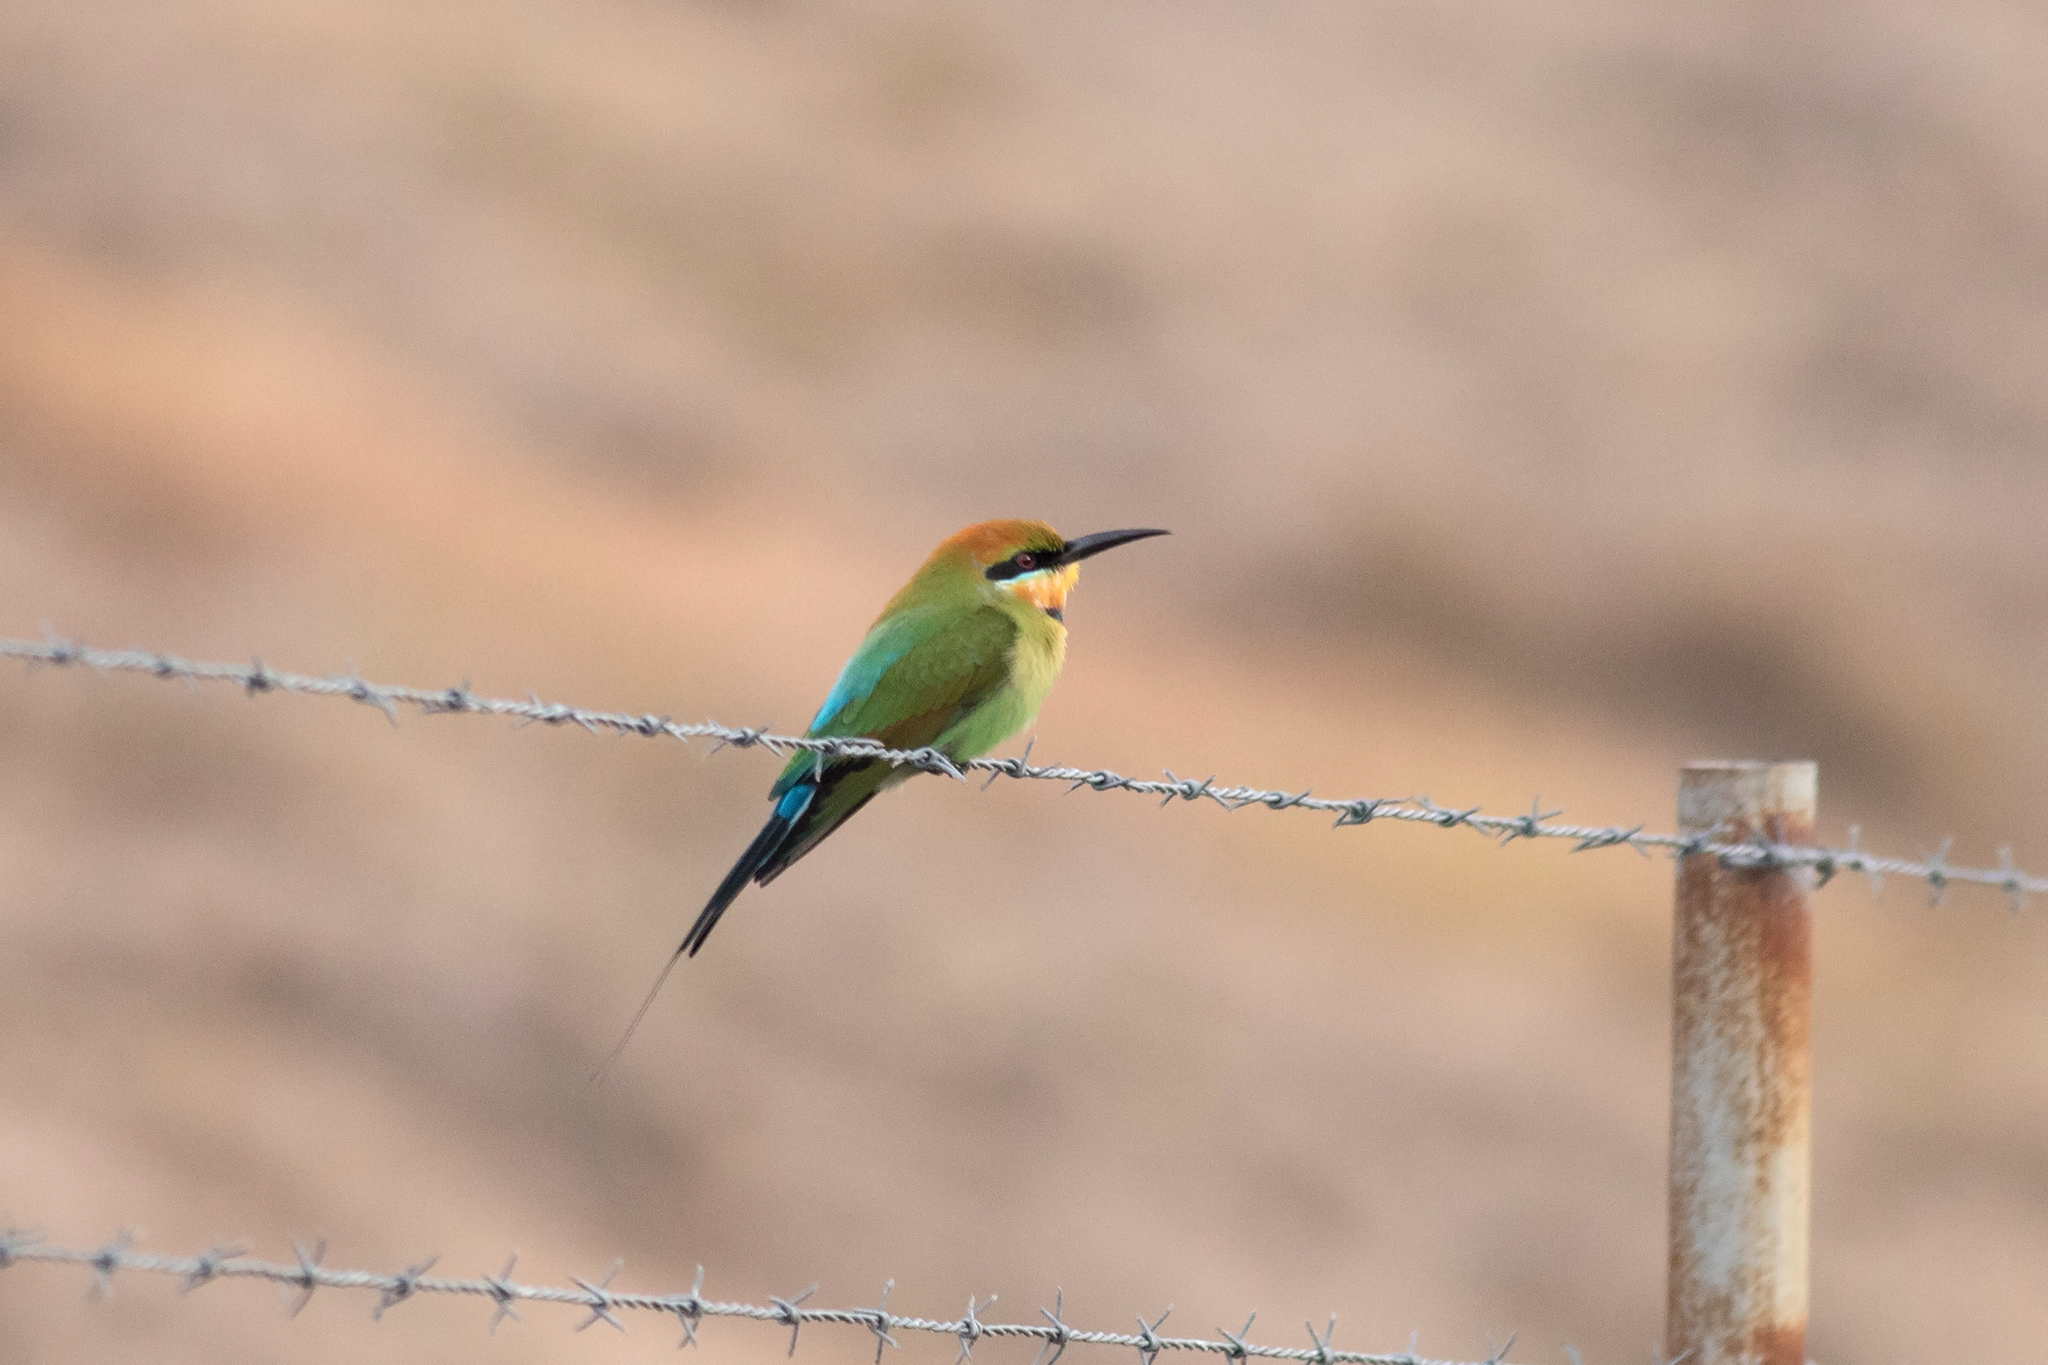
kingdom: Animalia
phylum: Chordata
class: Aves
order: Coraciiformes
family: Meropidae
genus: Merops
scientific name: Merops ornatus
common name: Rainbow bee-eater
